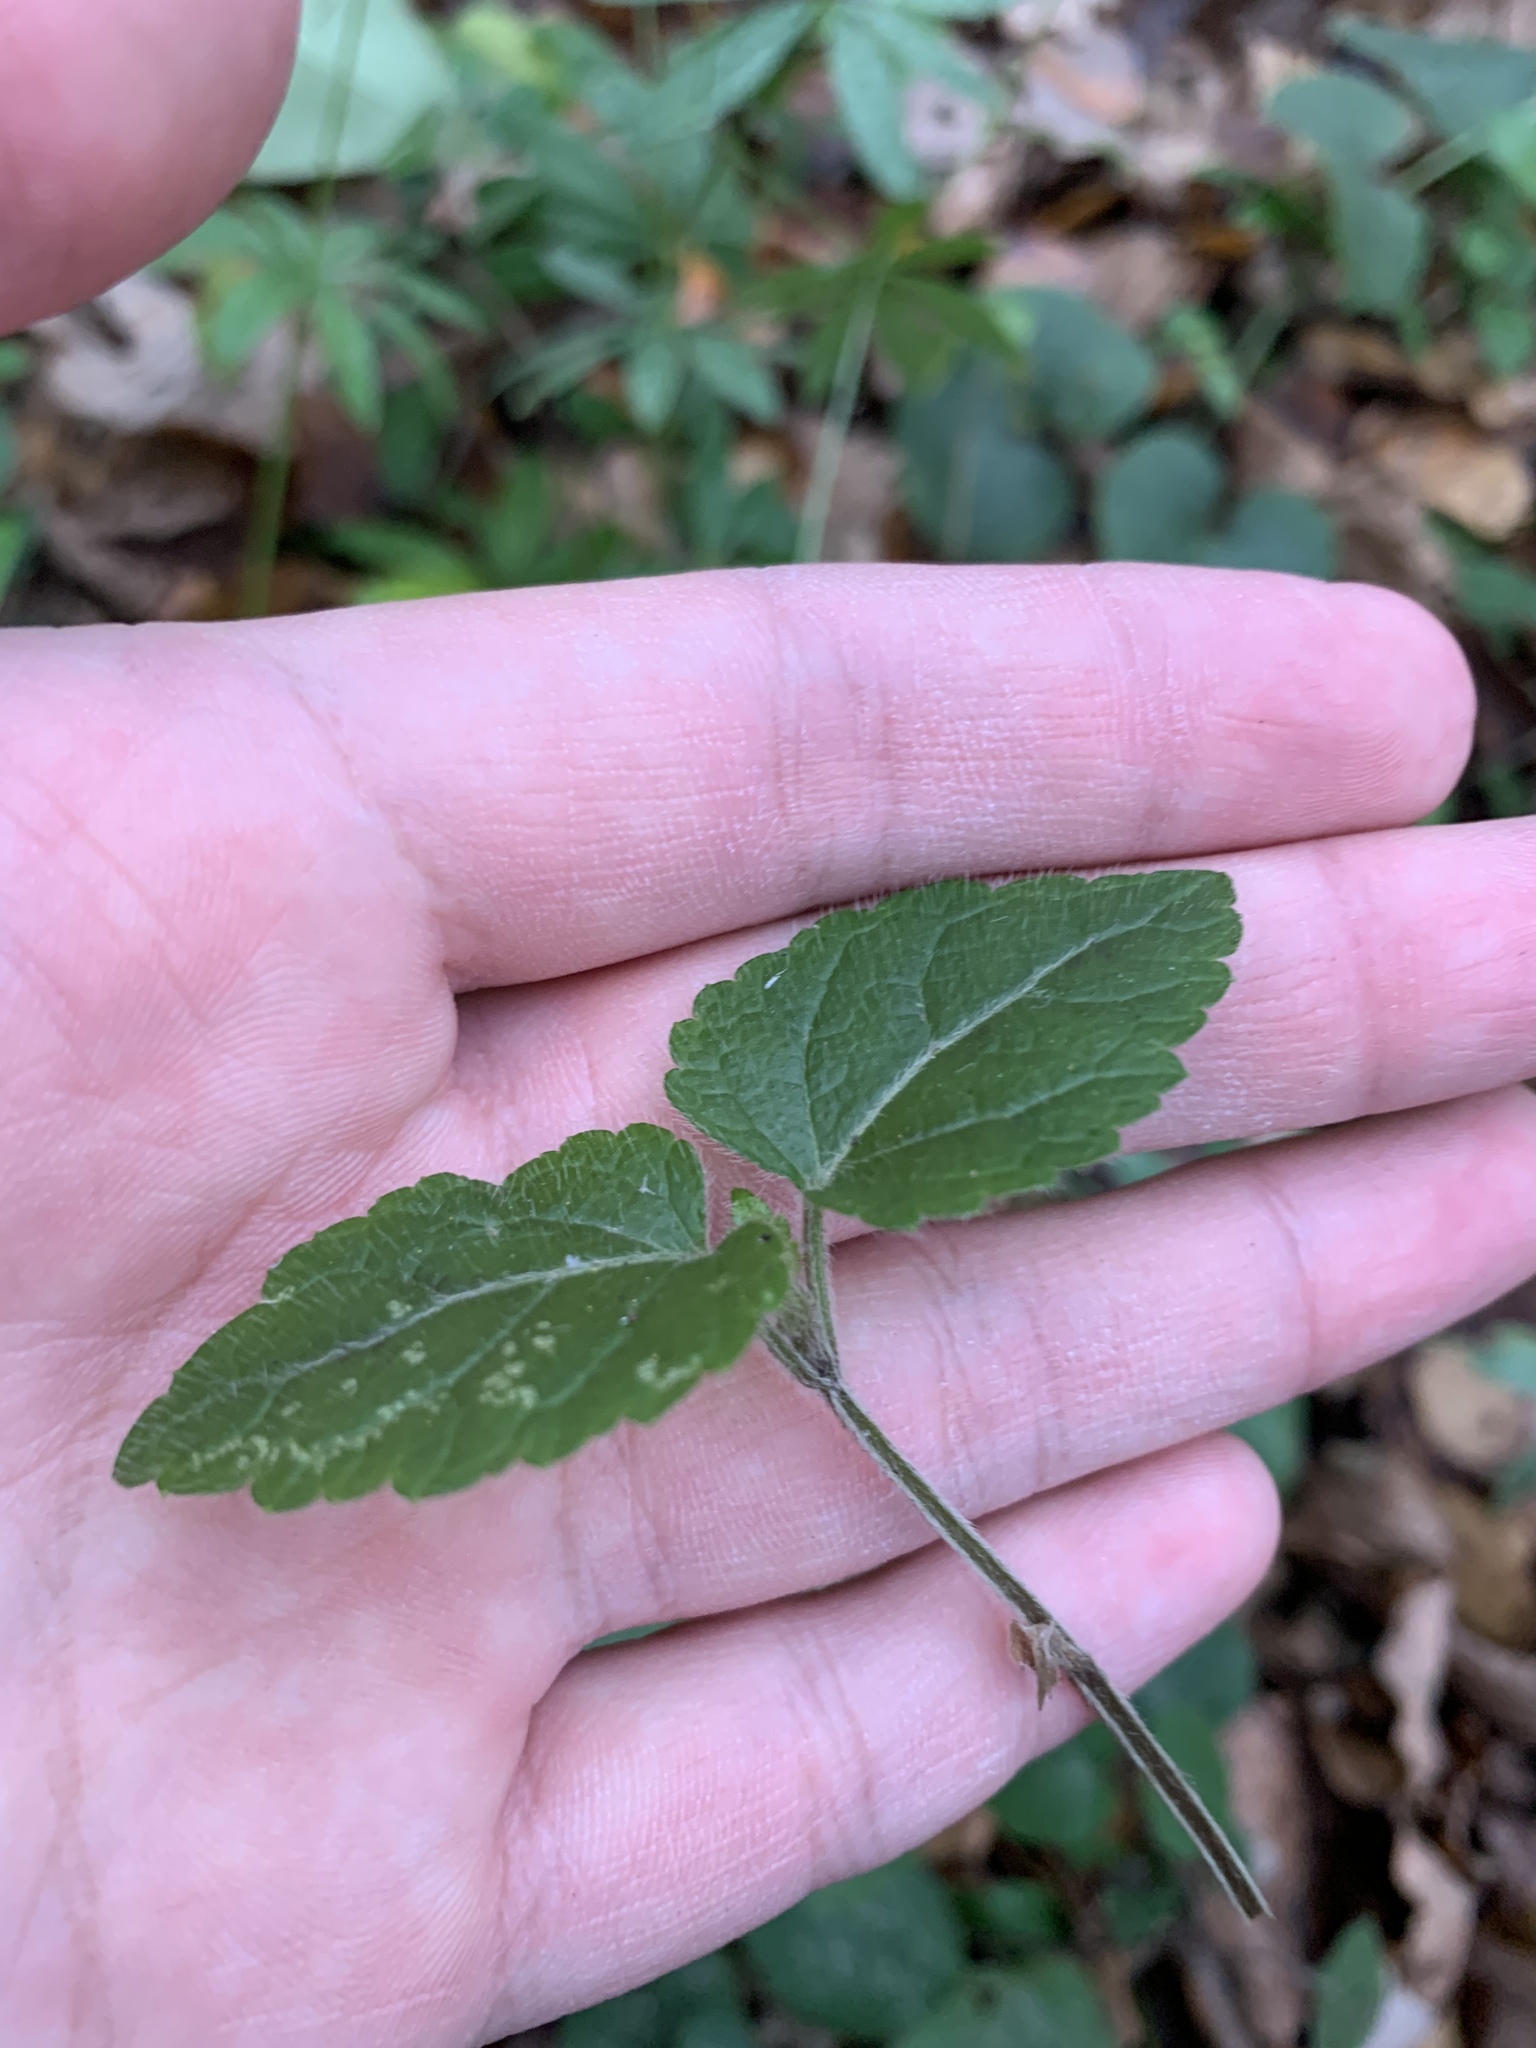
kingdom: Plantae
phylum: Tracheophyta
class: Magnoliopsida
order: Lamiales
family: Lamiaceae
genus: Lamium
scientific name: Lamium galeobdolon
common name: Yellow archangel
